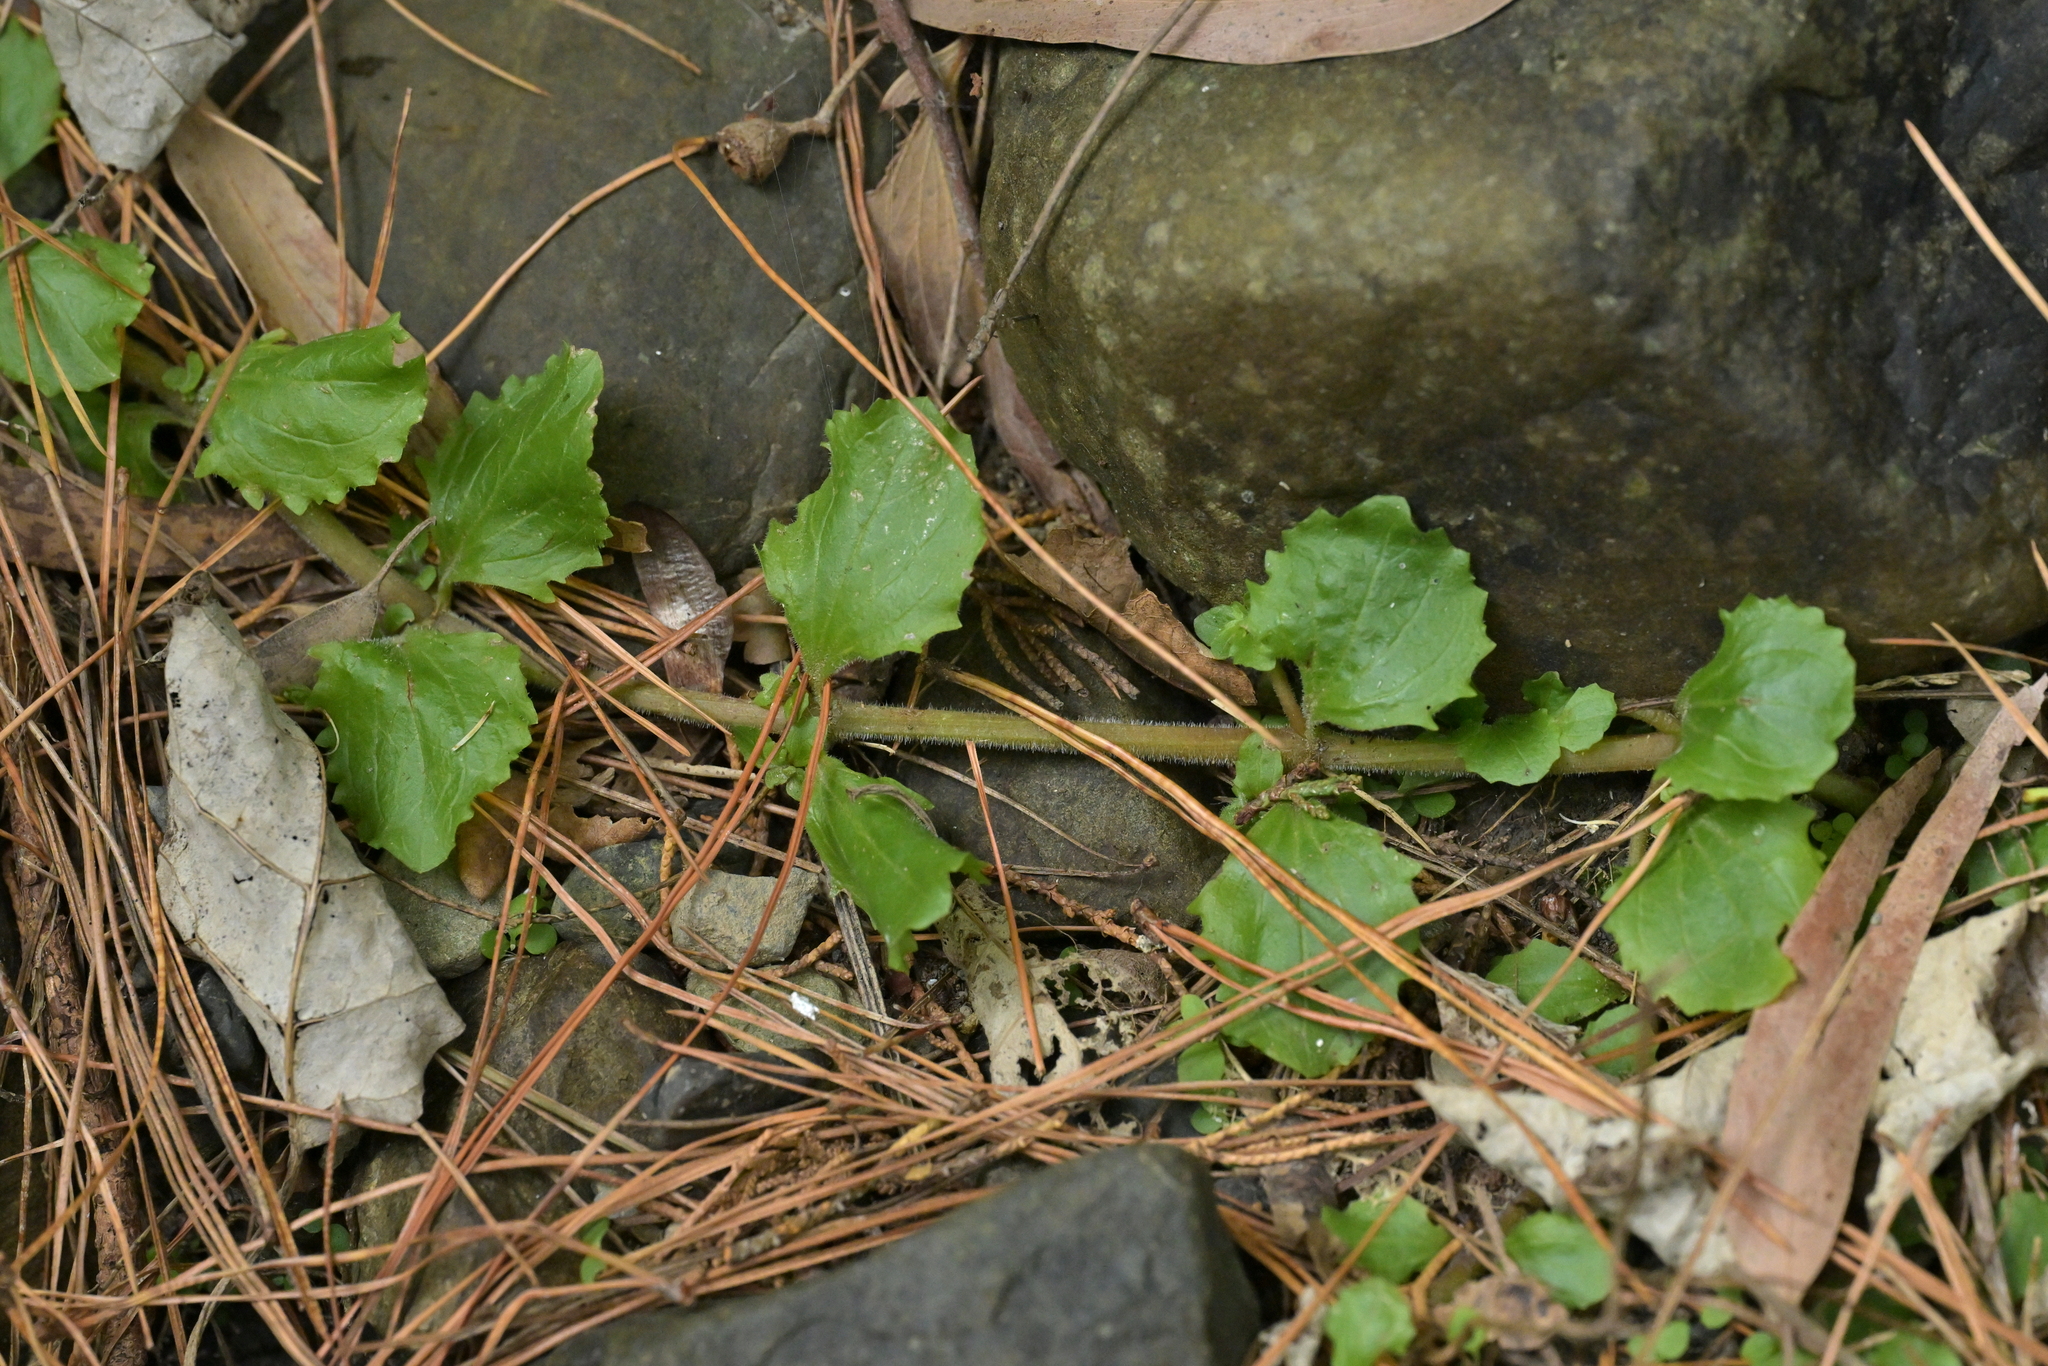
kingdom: Plantae
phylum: Tracheophyta
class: Magnoliopsida
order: Lamiales
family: Phrymaceae
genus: Erythranthe
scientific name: Erythranthe guttata
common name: Monkeyflower
